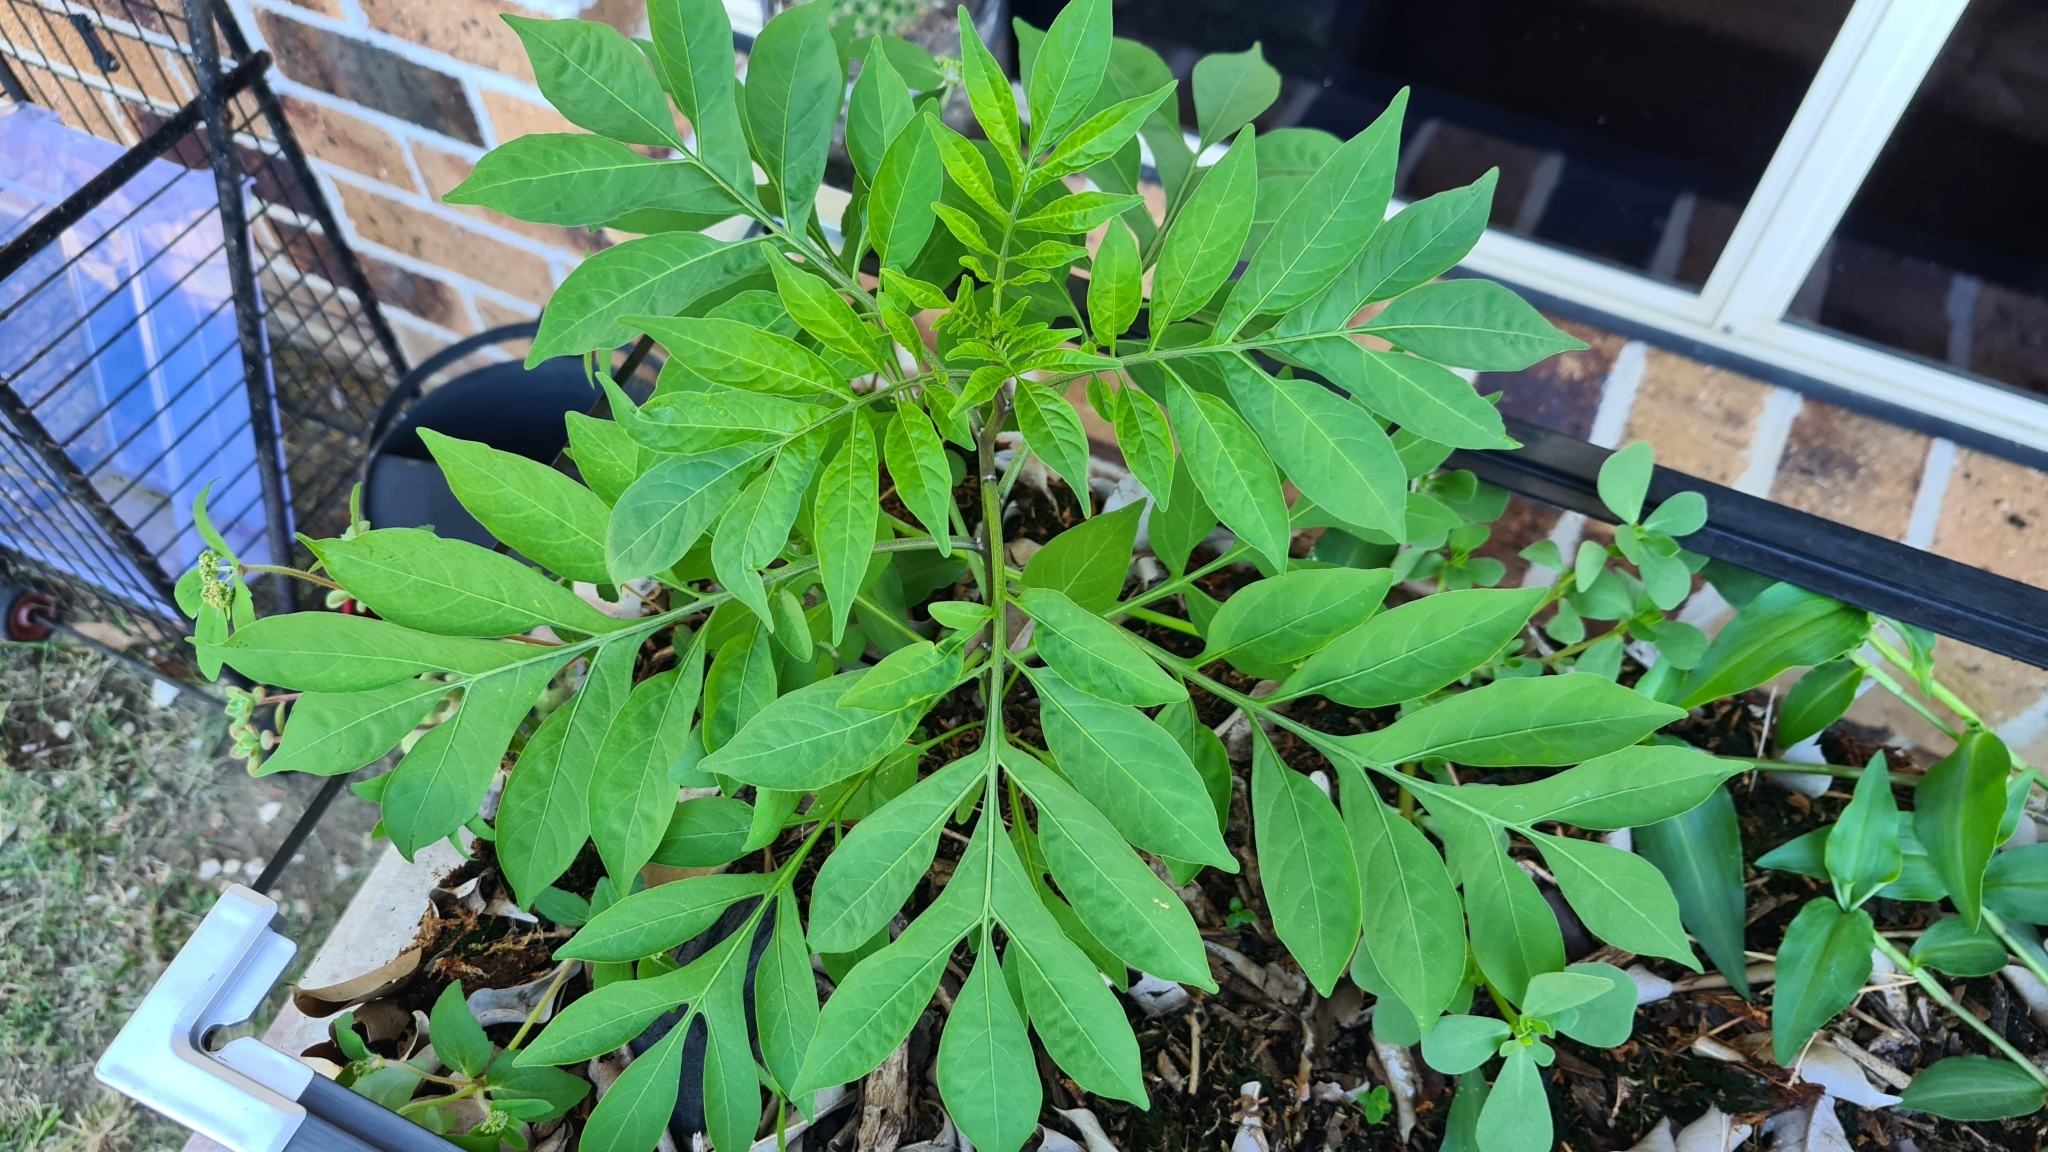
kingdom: Plantae
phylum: Tracheophyta
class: Magnoliopsida
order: Solanales
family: Solanaceae
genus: Solanum
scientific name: Solanum seaforthianum
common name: Brazilian nightshade
